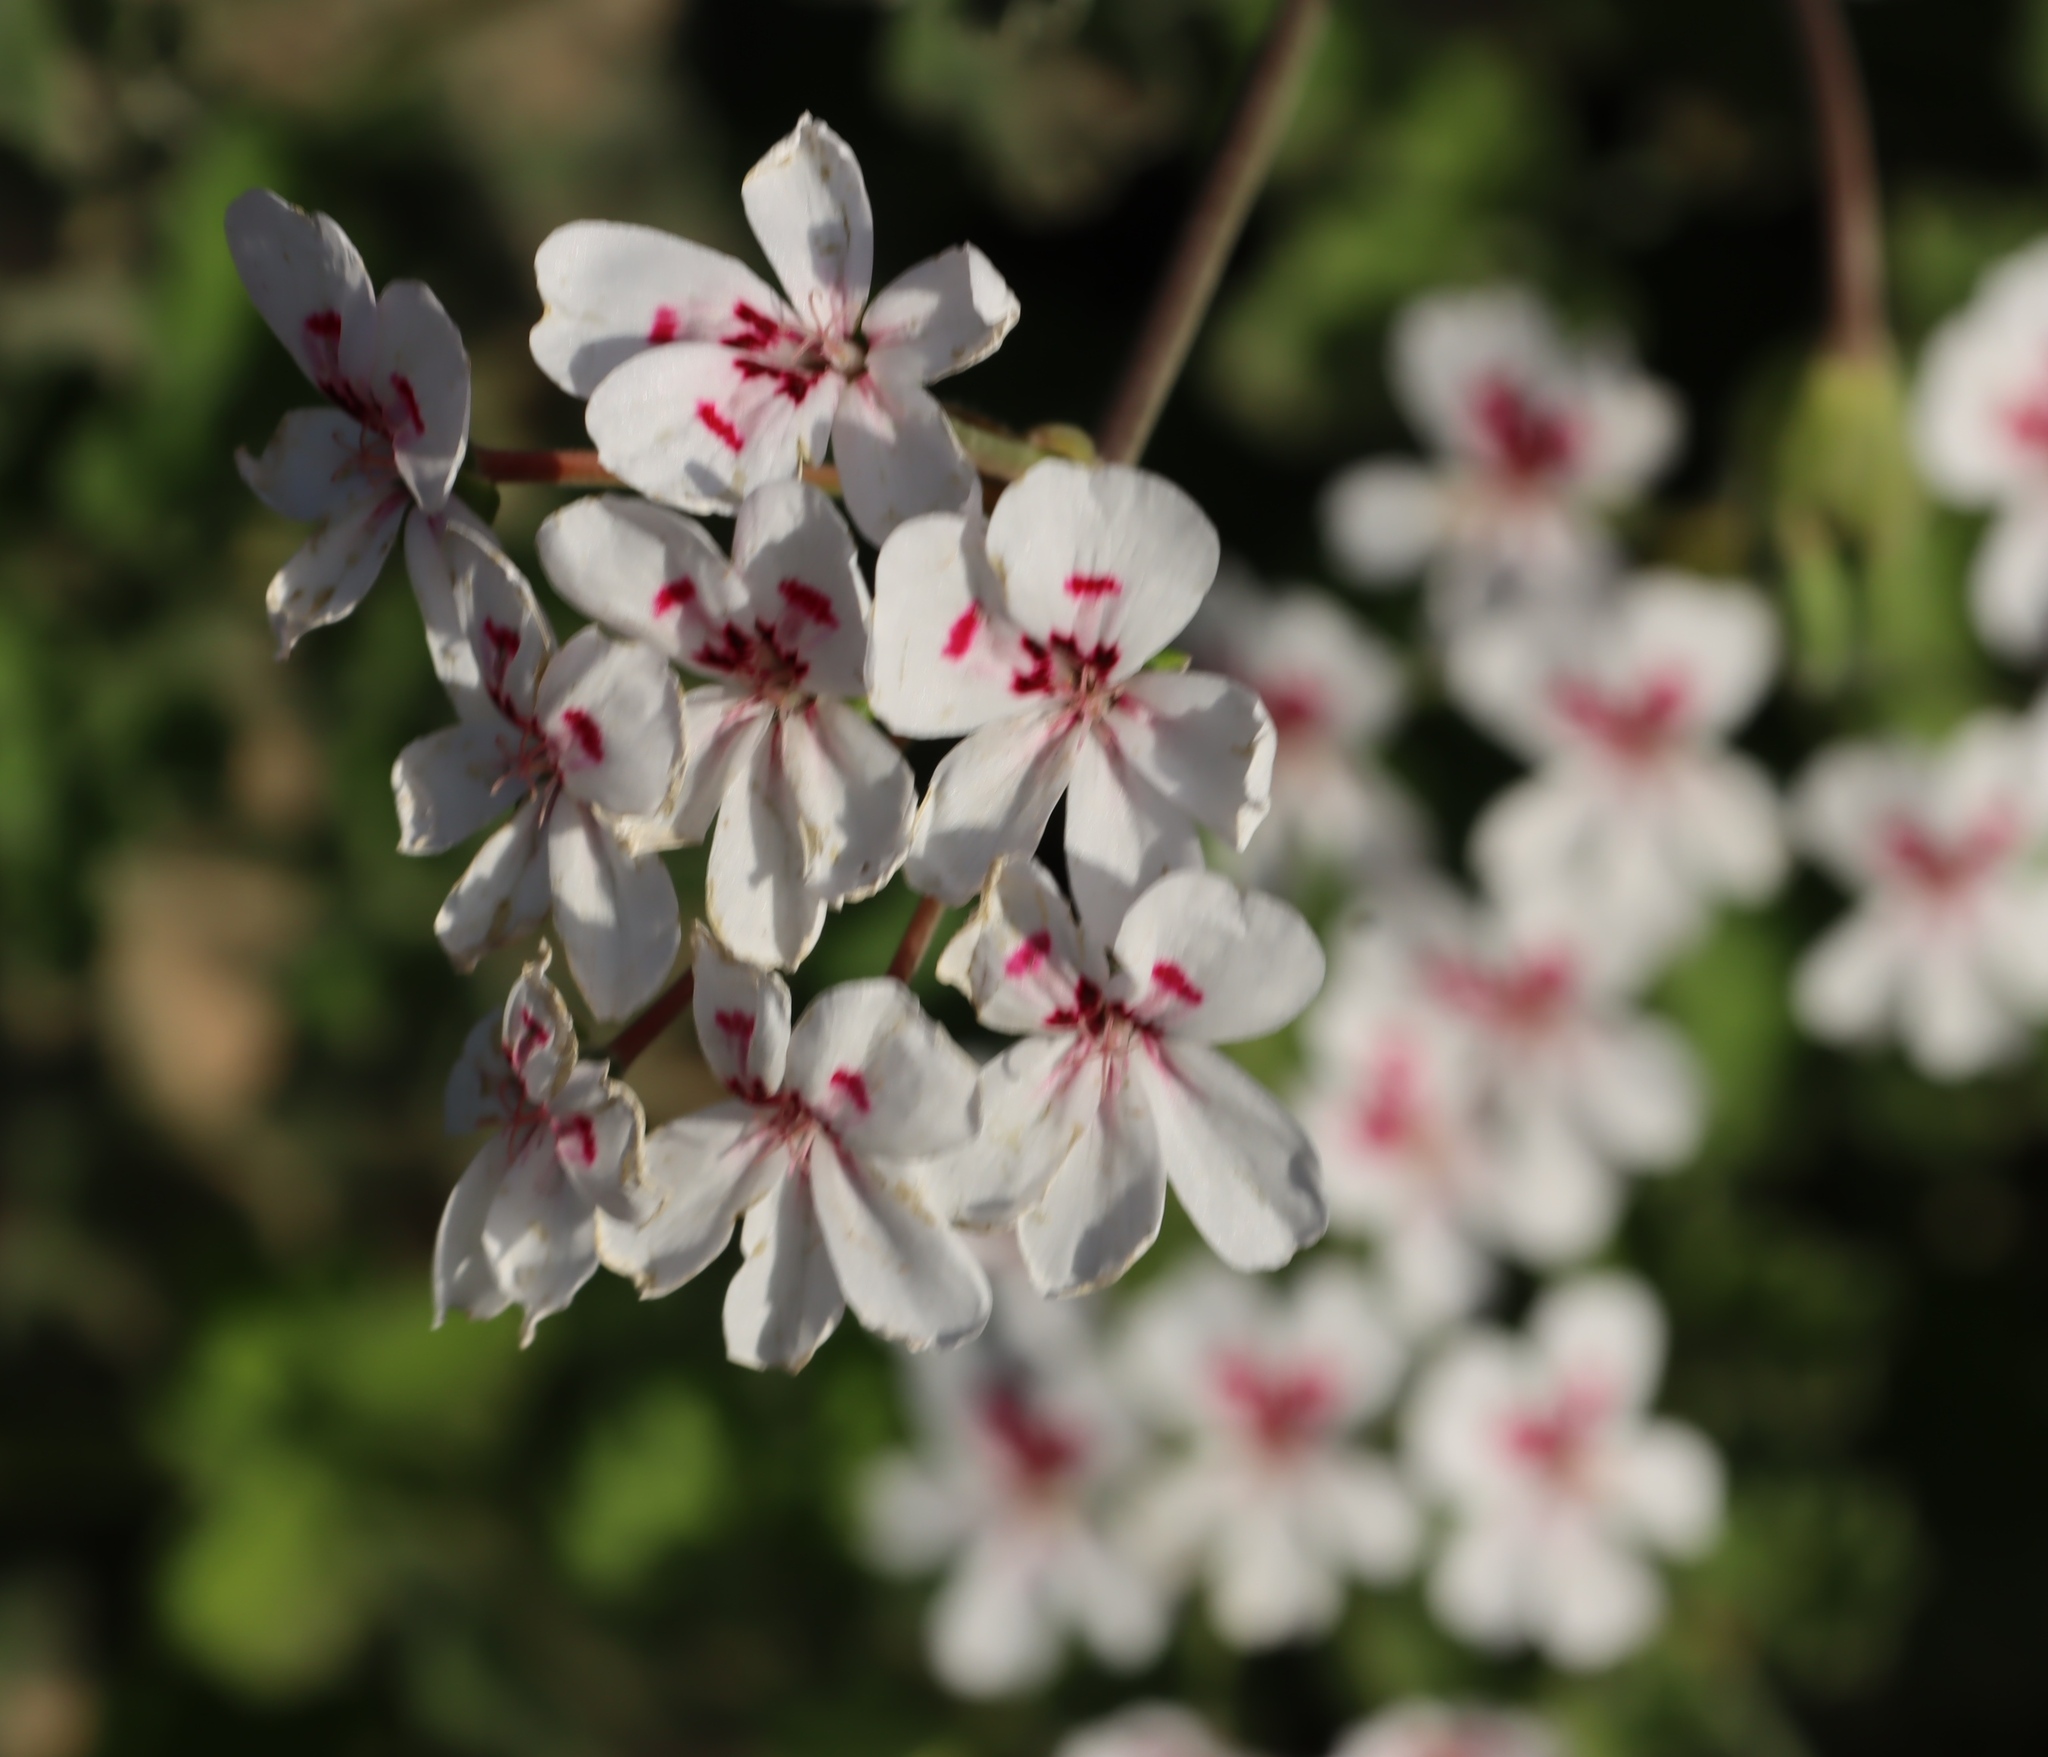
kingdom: Plantae
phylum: Tracheophyta
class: Magnoliopsida
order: Geraniales
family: Geraniaceae
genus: Pelargonium
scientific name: Pelargonium echinatum
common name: Cactus geranium
